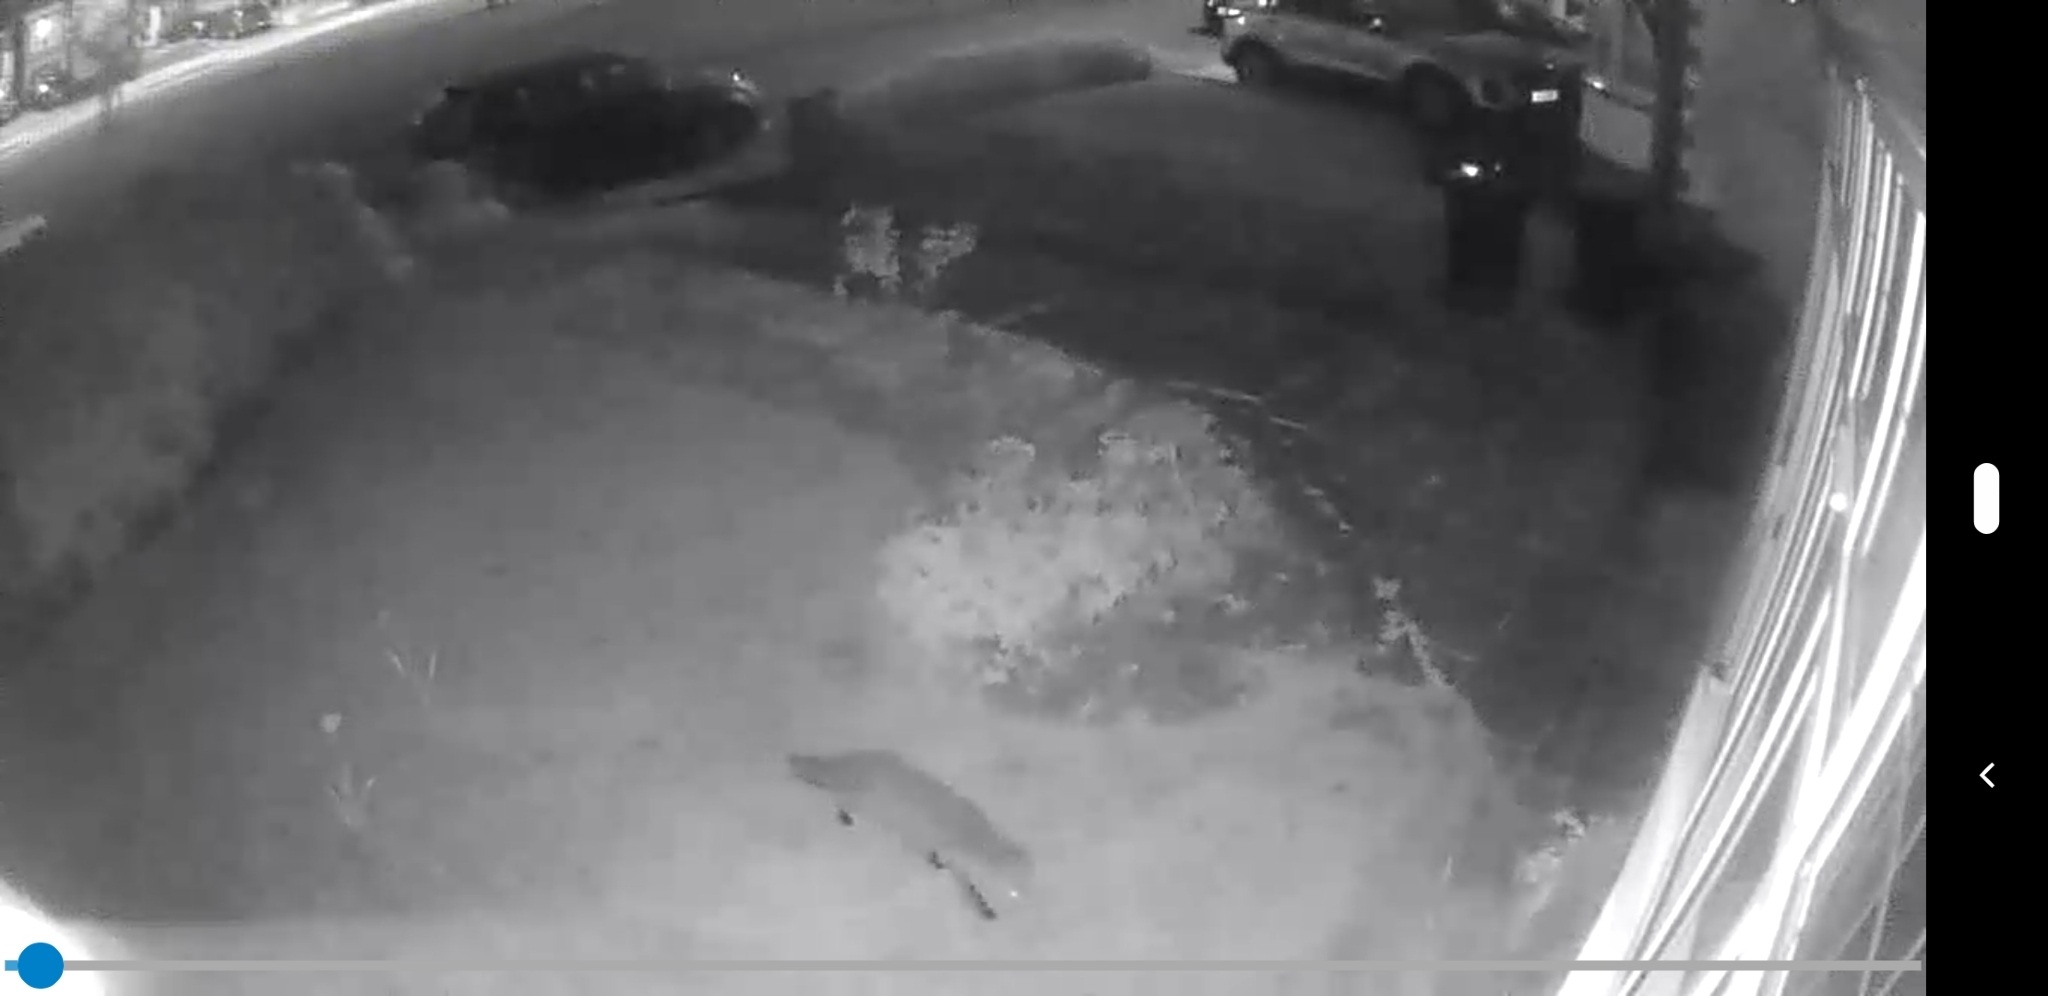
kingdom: Animalia
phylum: Chordata
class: Mammalia
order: Carnivora
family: Canidae
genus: Vulpes
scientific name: Vulpes vulpes
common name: Red fox
